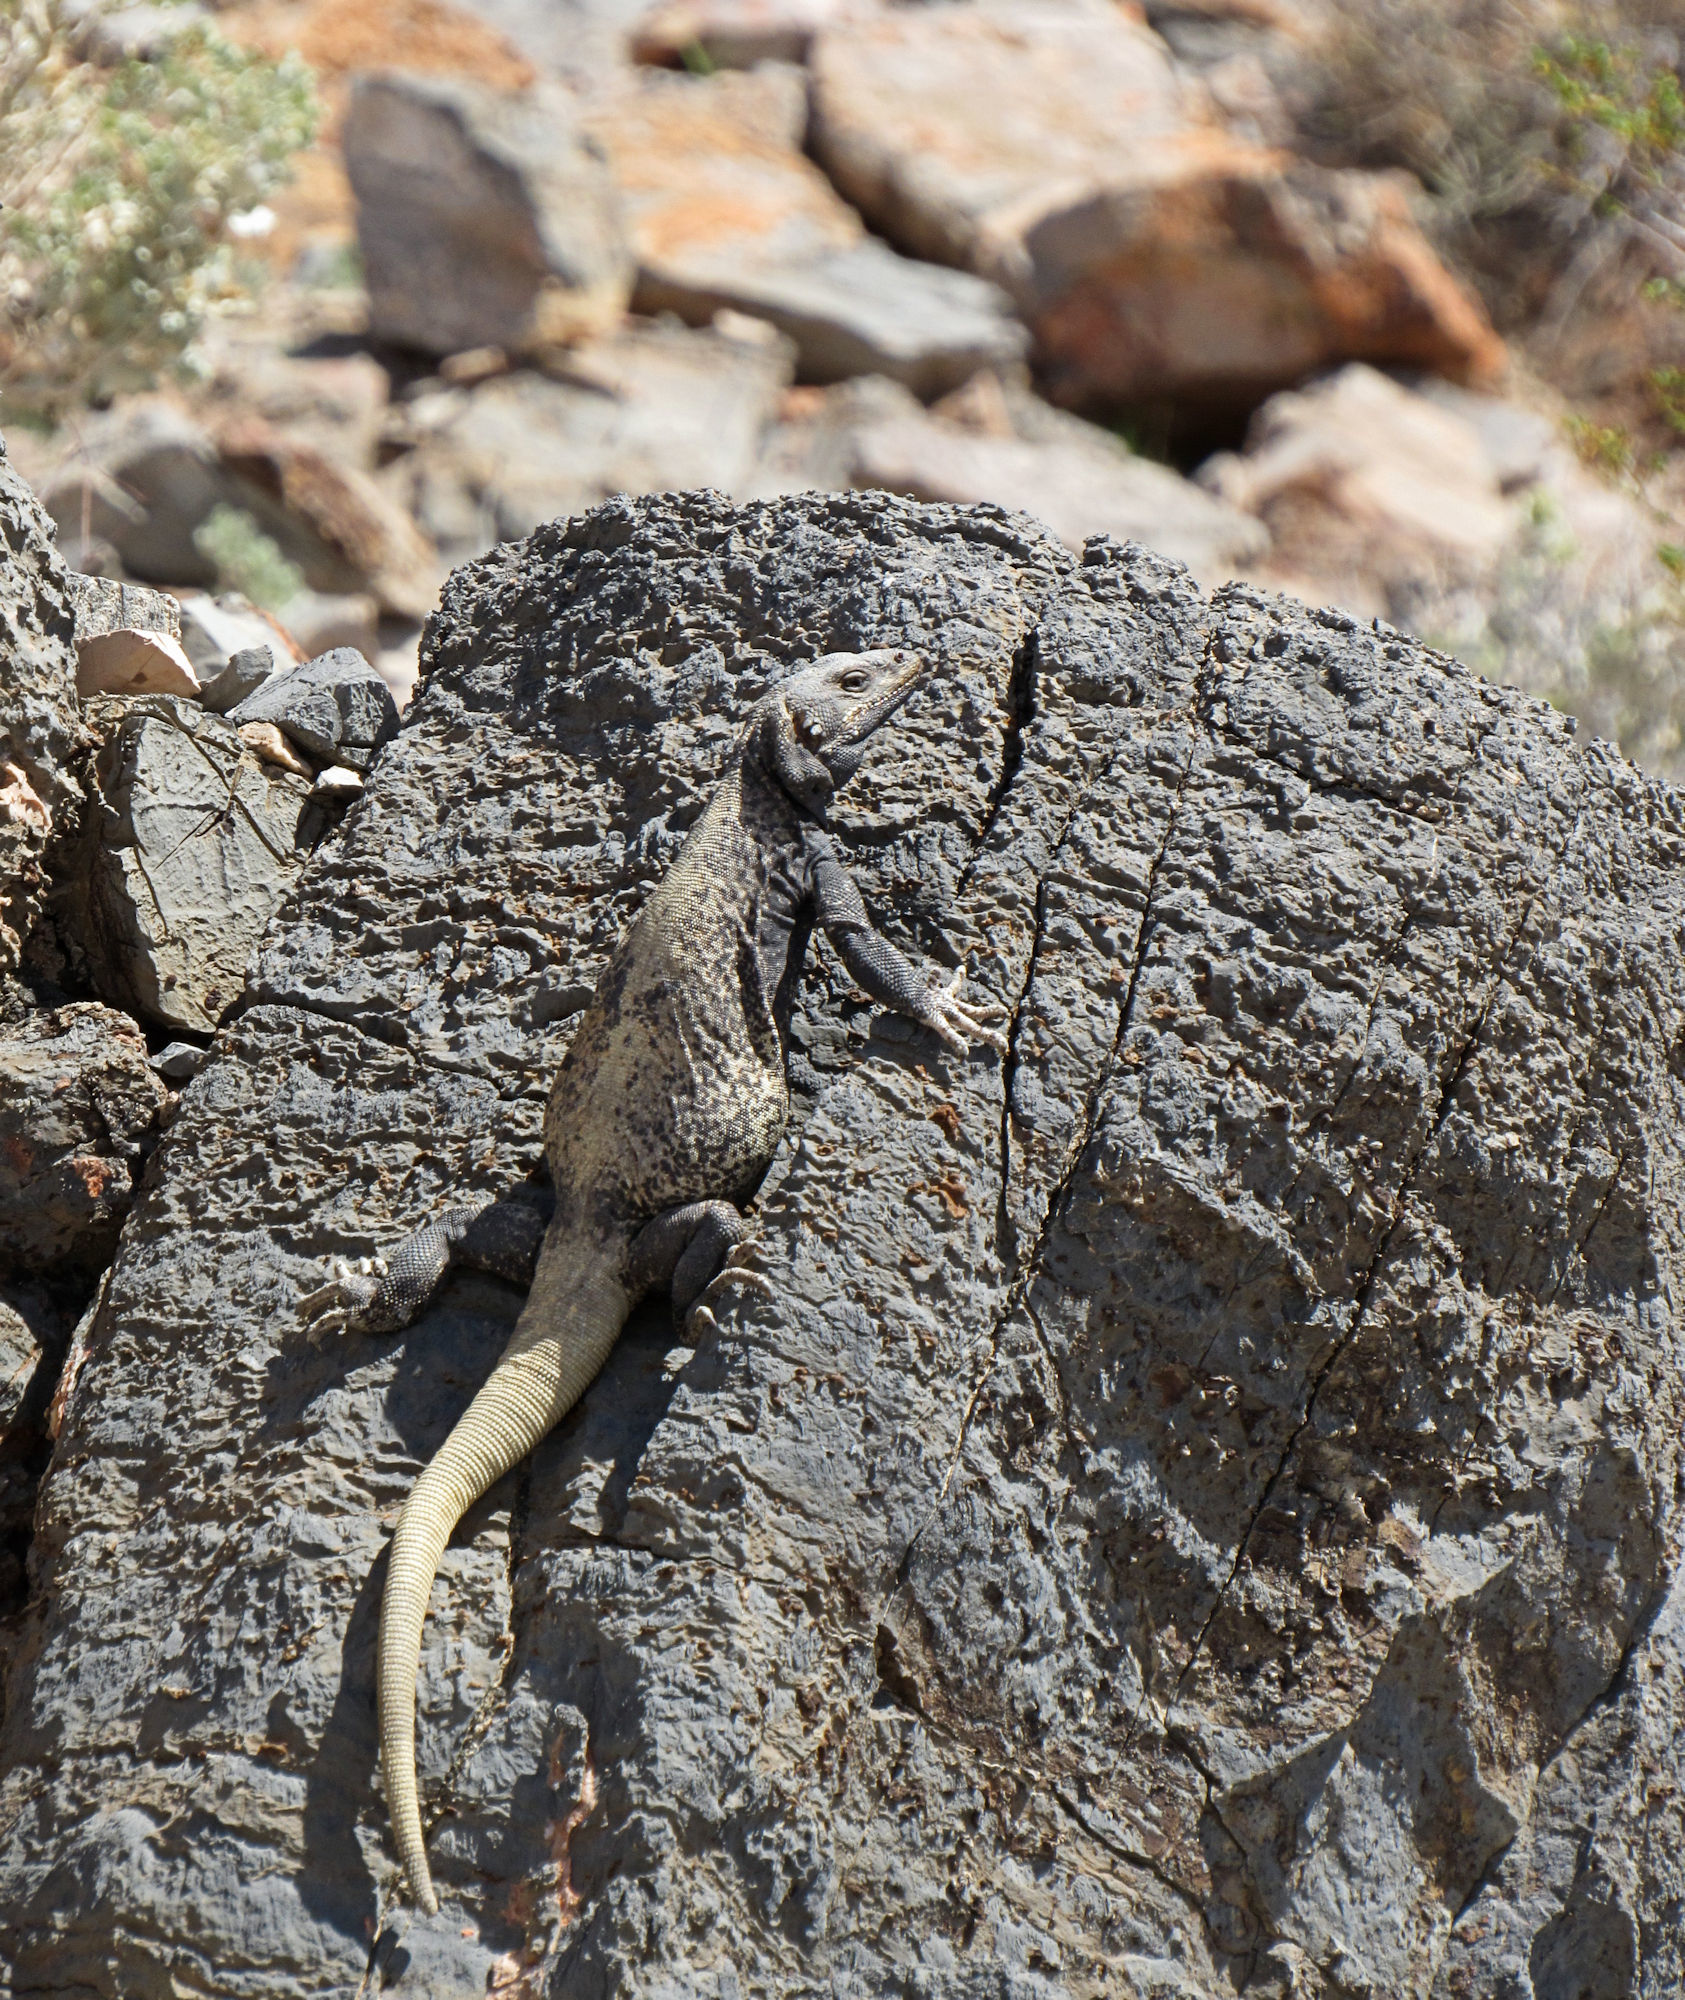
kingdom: Animalia
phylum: Chordata
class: Squamata
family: Iguanidae
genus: Sauromalus
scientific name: Sauromalus ater
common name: Northern chuckwalla
